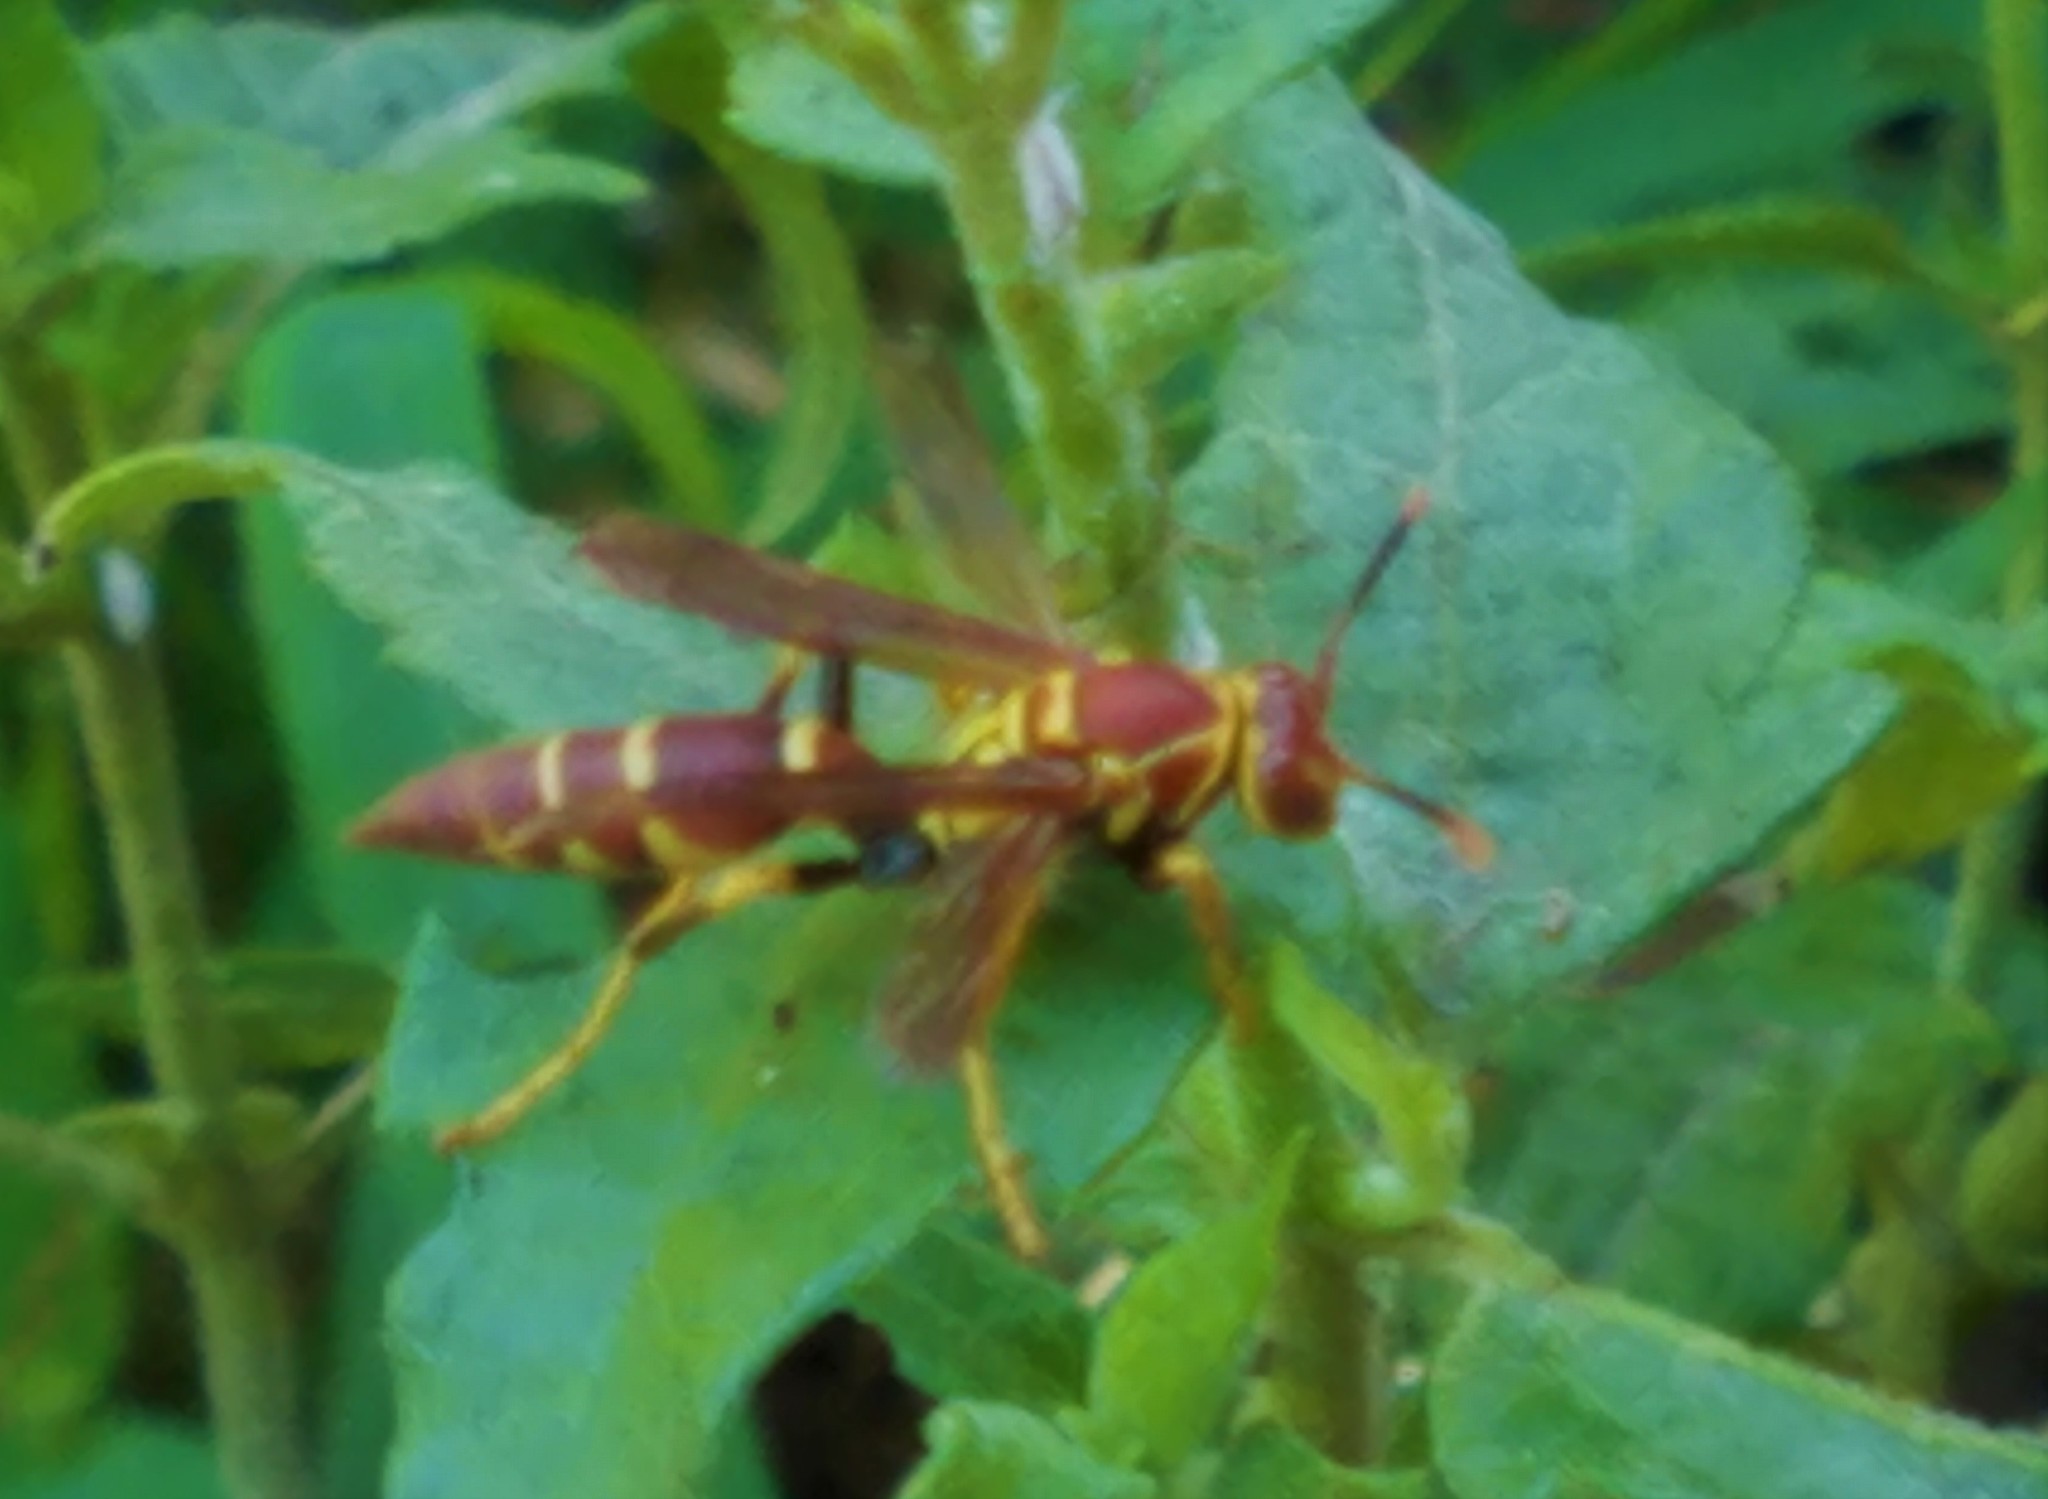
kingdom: Animalia
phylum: Arthropoda
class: Insecta
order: Hymenoptera
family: Eumenidae
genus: Polistes
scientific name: Polistes instabilis
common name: Unstable paper wasp
